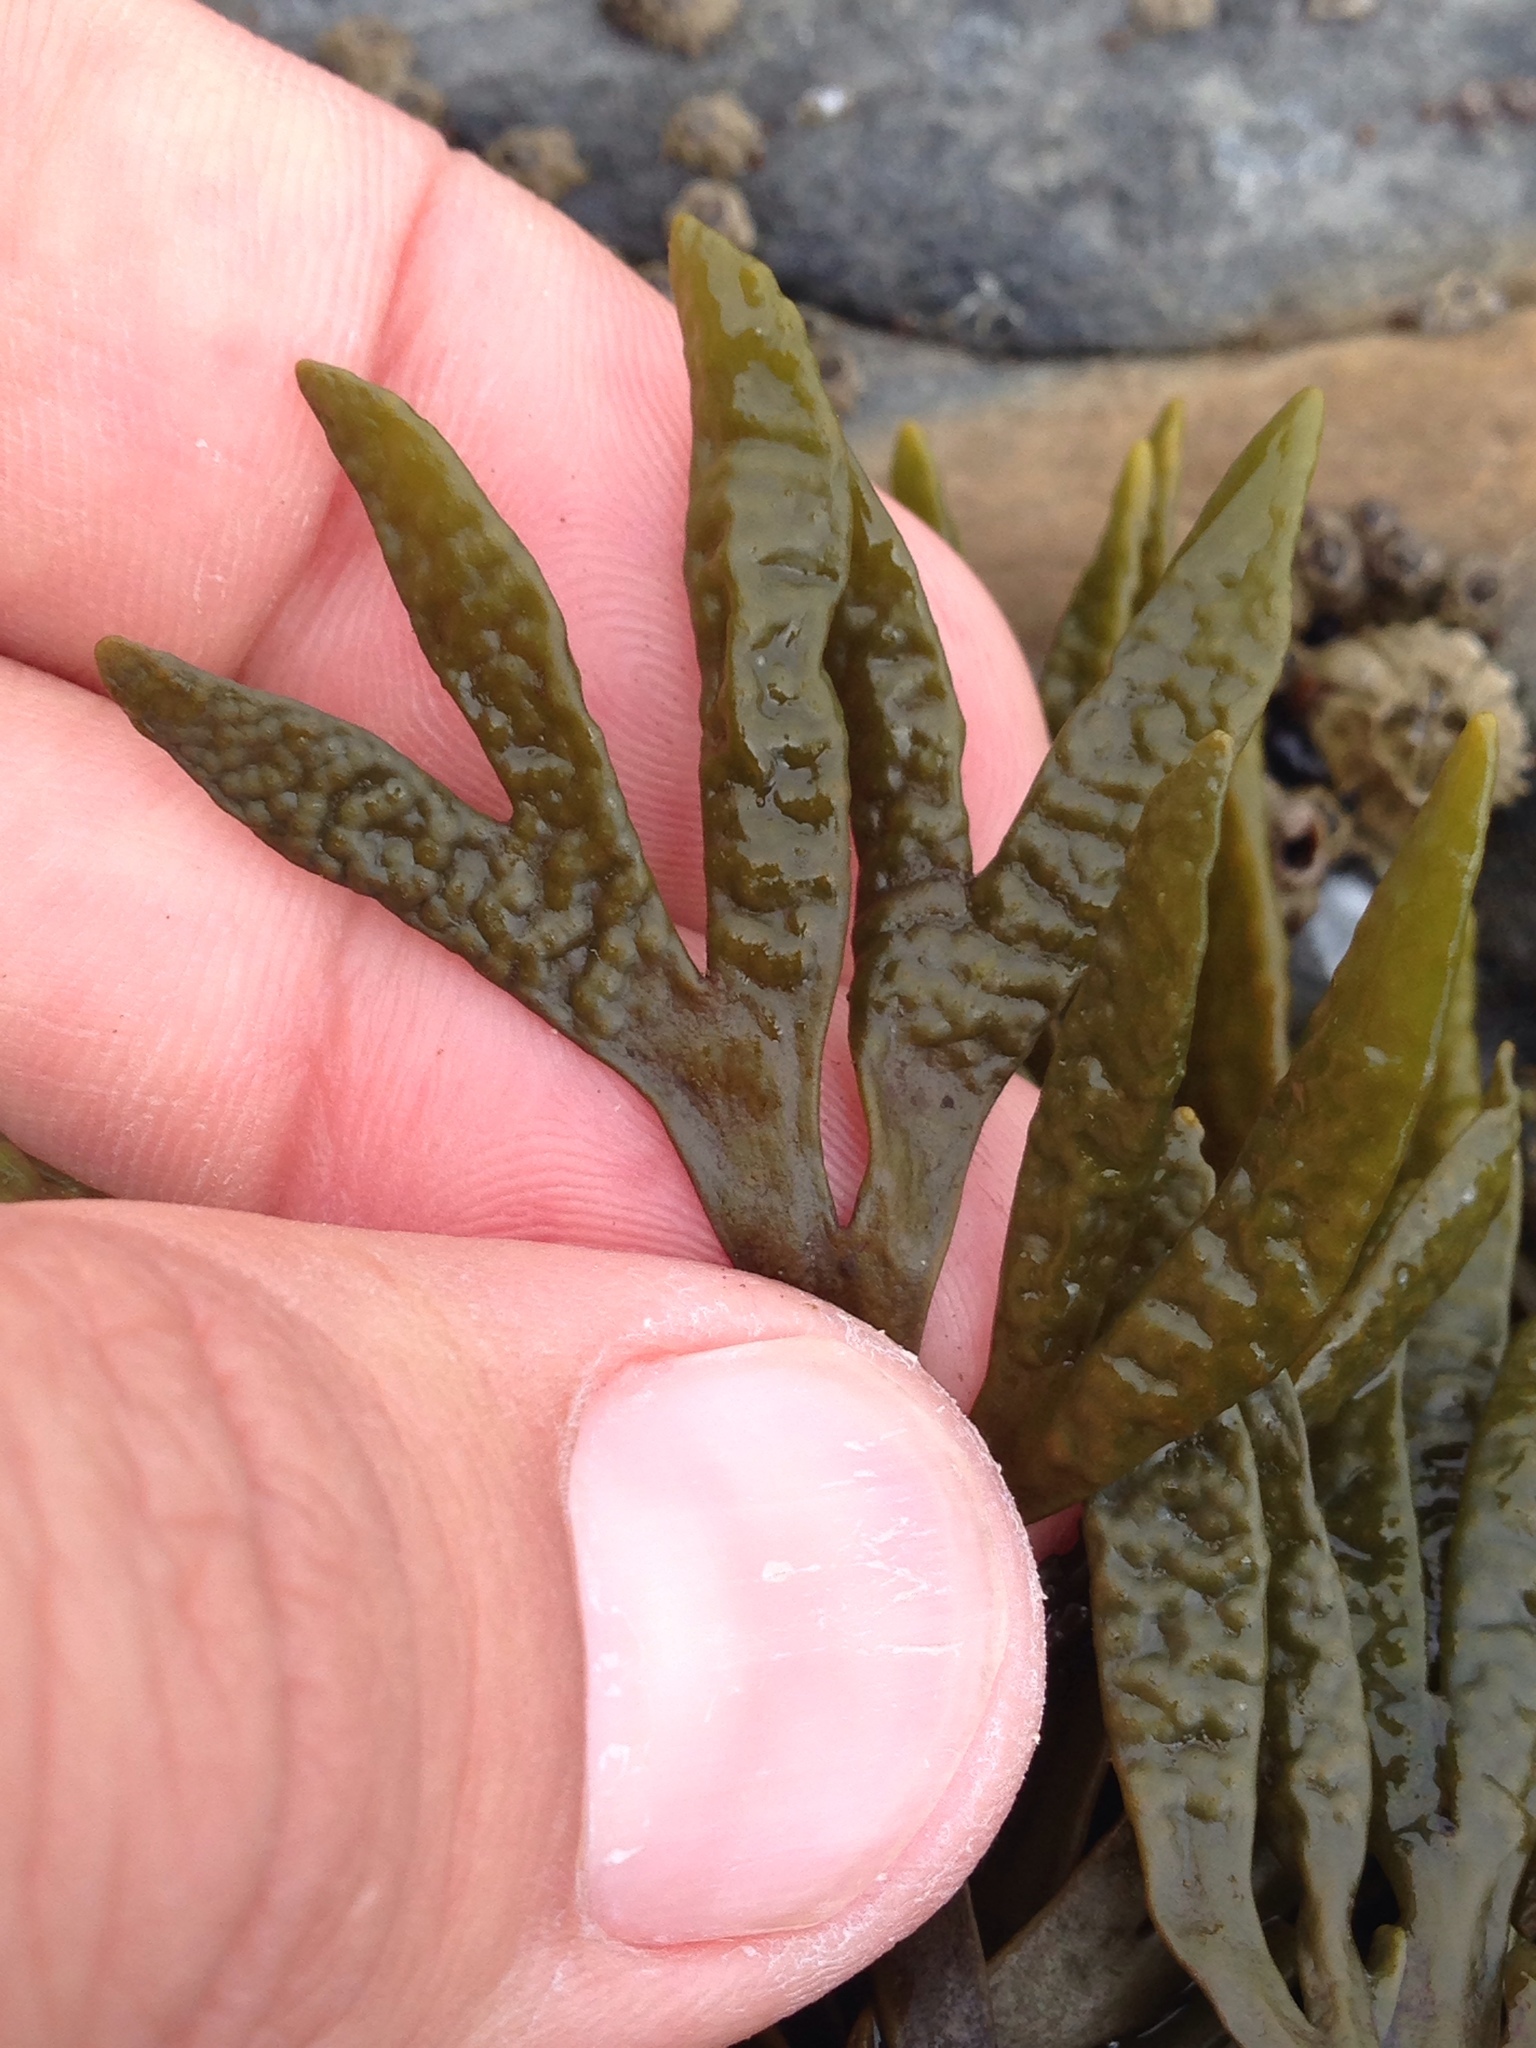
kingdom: Chromista
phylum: Ochrophyta
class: Phaeophyceae
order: Fucales
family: Fucaceae
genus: Pelvetiopsis
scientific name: Pelvetiopsis limitata
